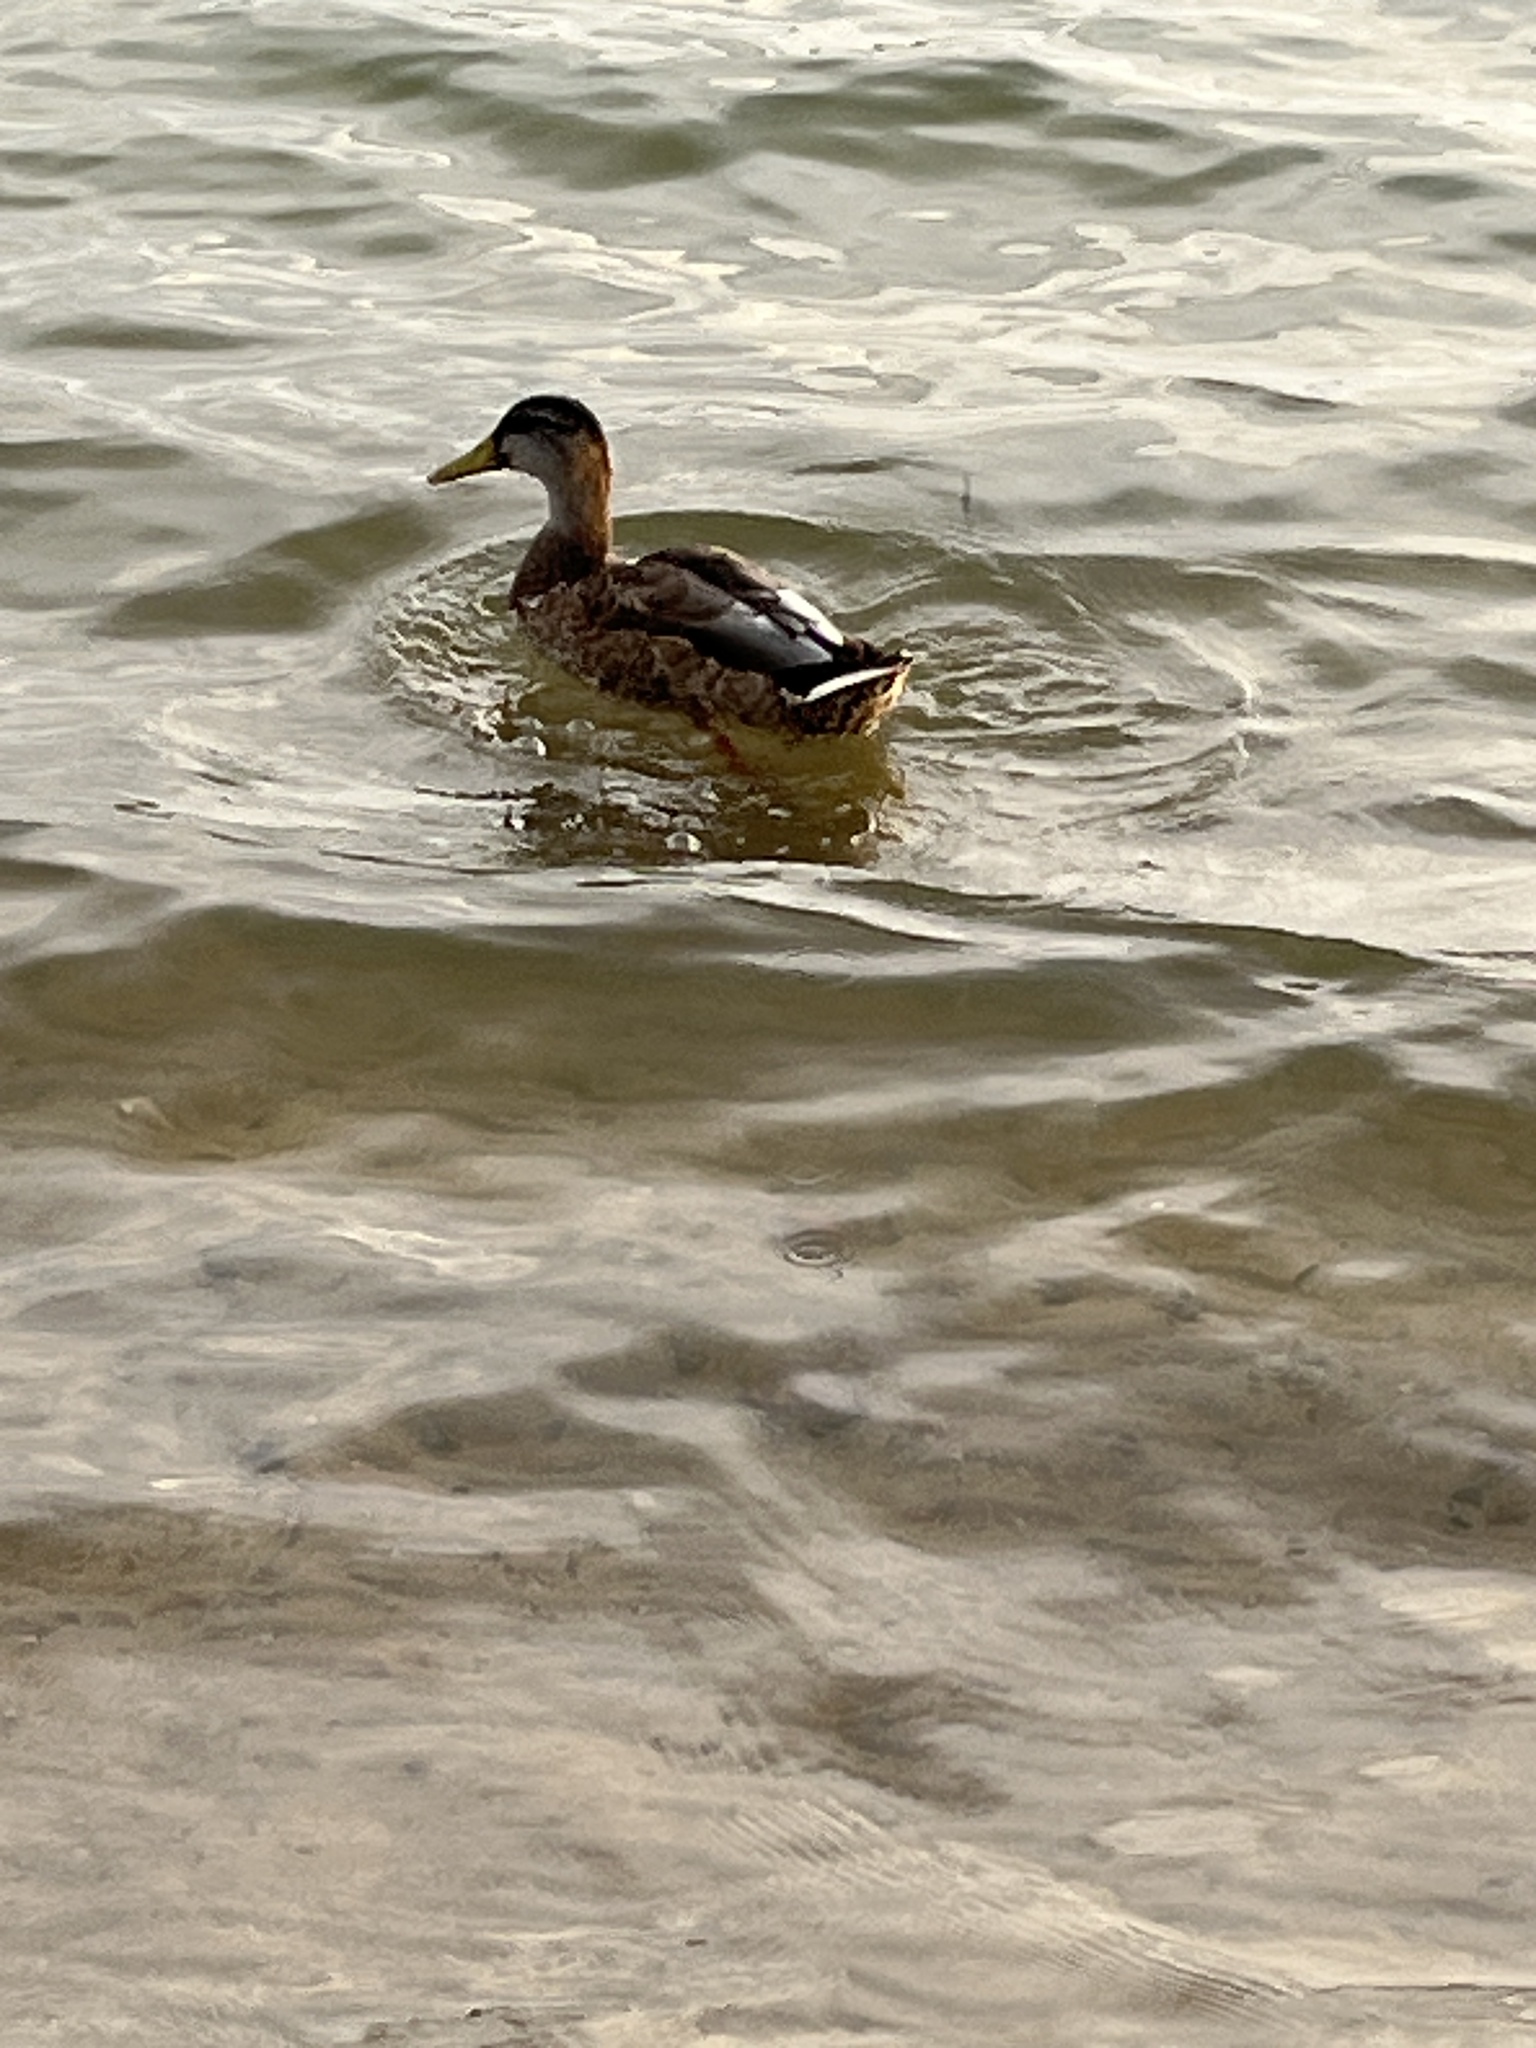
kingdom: Animalia
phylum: Chordata
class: Aves
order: Anseriformes
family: Anatidae
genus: Anas
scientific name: Anas platyrhynchos
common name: Mallard
